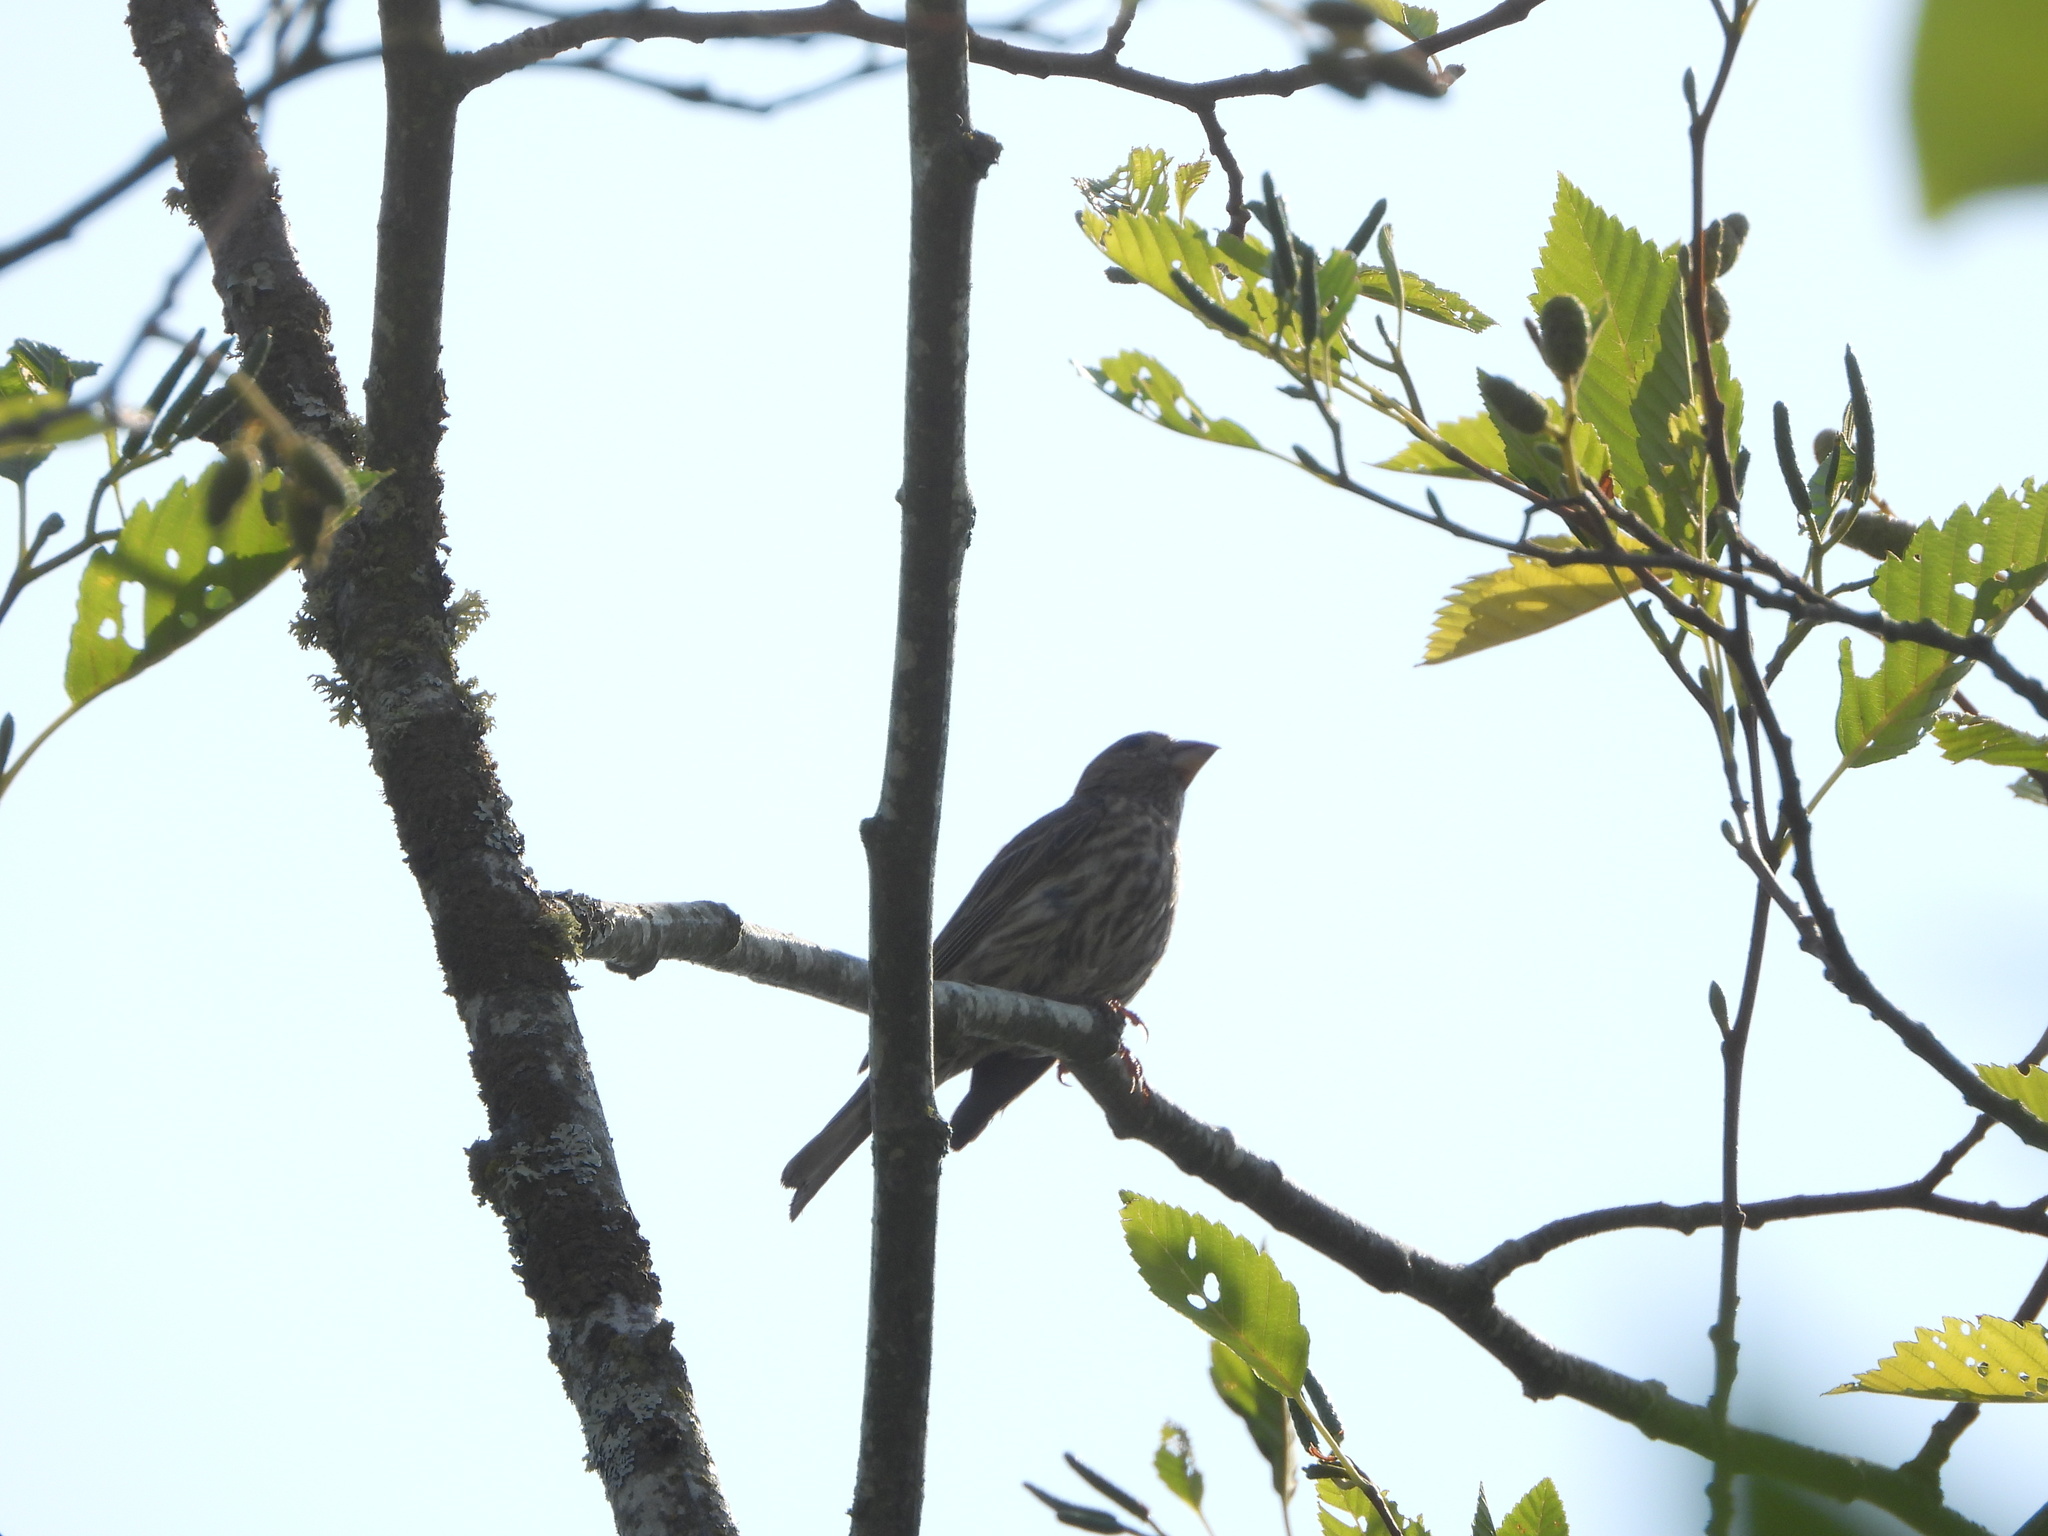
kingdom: Animalia
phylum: Chordata
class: Aves
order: Passeriformes
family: Fringillidae
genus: Haemorhous
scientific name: Haemorhous mexicanus
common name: House finch
